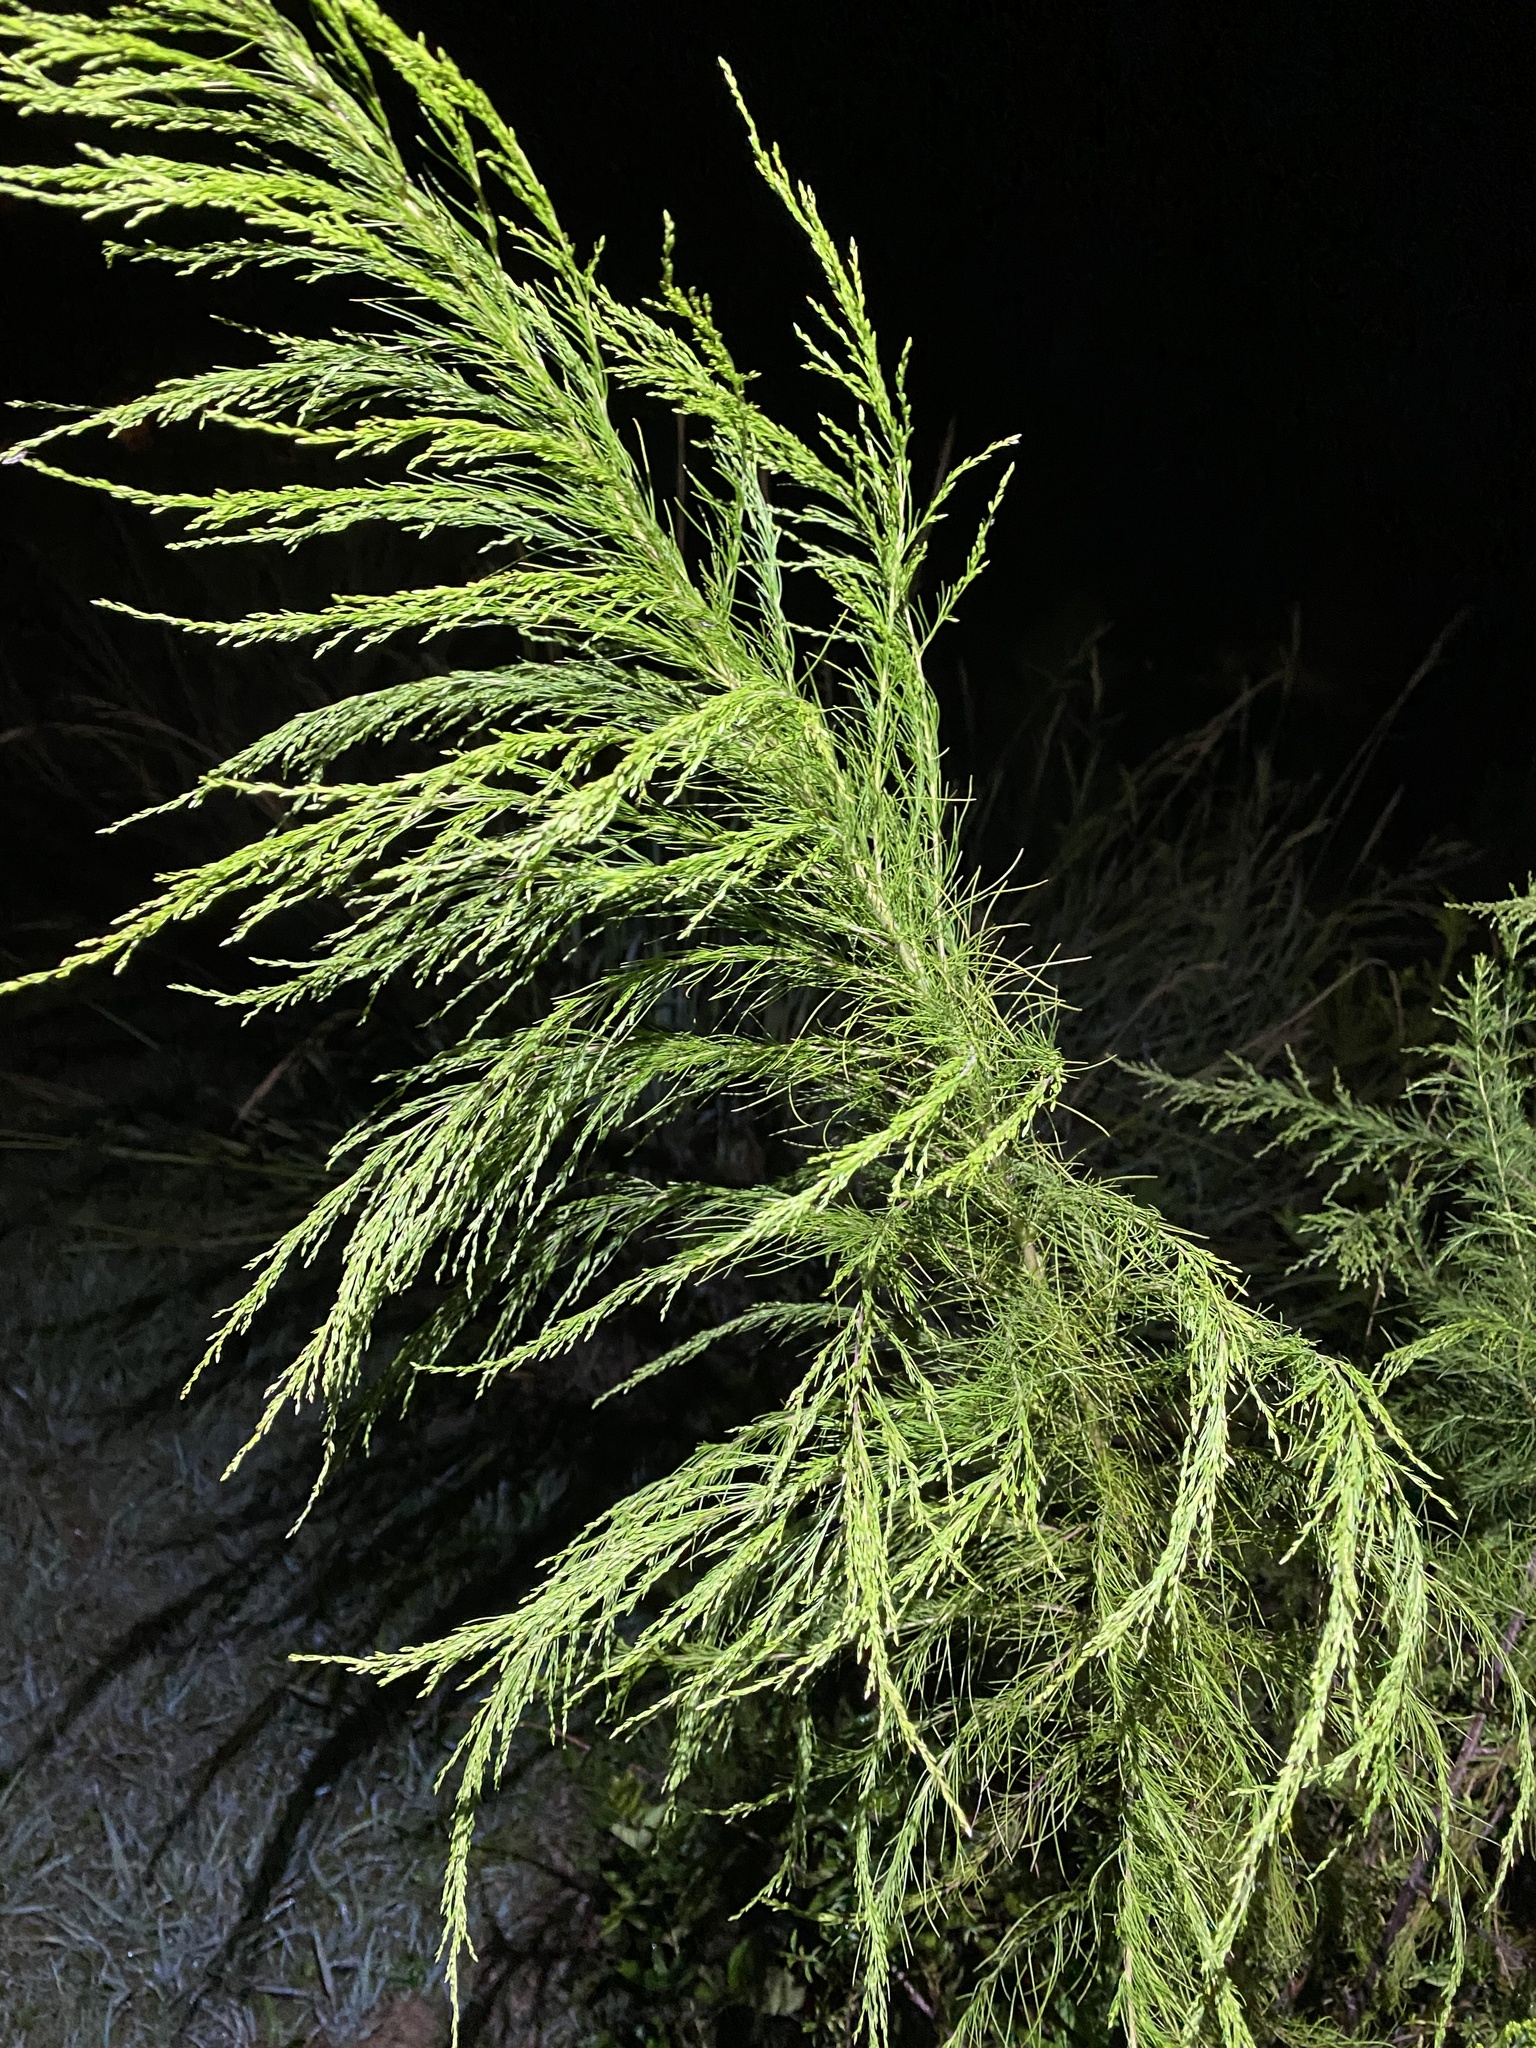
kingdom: Plantae
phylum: Tracheophyta
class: Magnoliopsida
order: Asterales
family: Asteraceae
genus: Eupatorium
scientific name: Eupatorium capillifolium
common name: Dog-fennel
